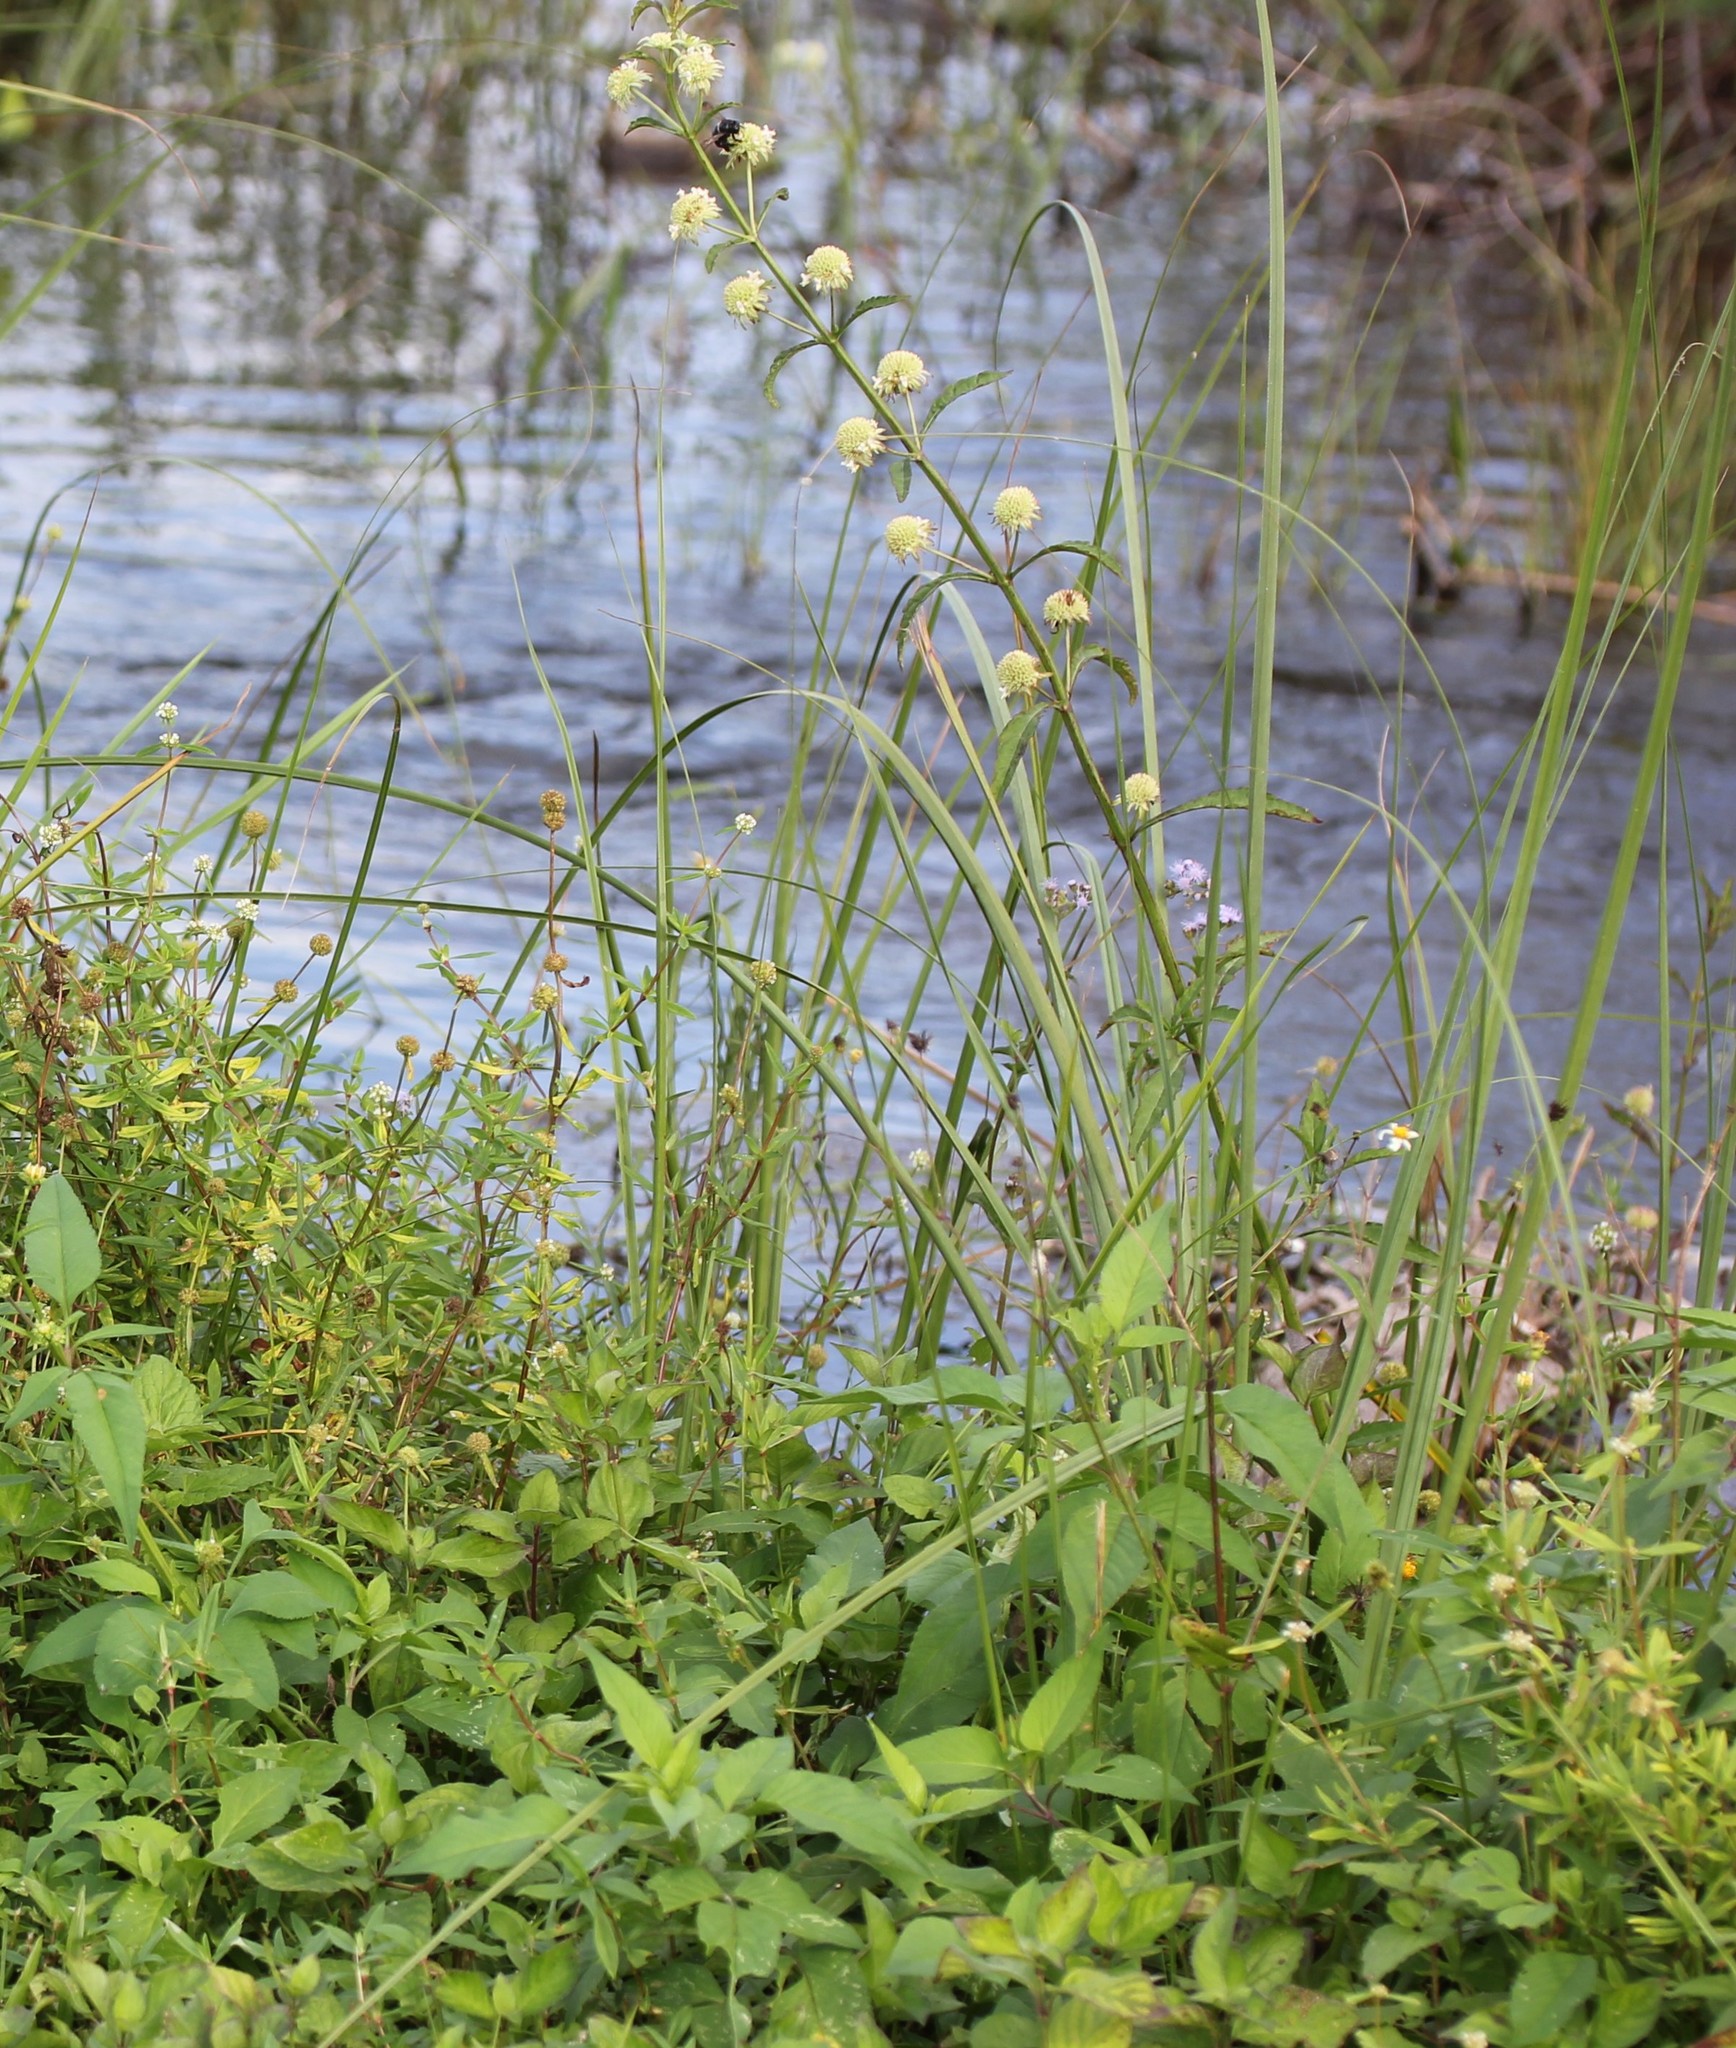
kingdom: Plantae
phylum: Tracheophyta
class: Magnoliopsida
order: Lamiales
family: Lamiaceae
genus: Hyptis
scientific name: Hyptis alata
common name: Cluster bush-mint
